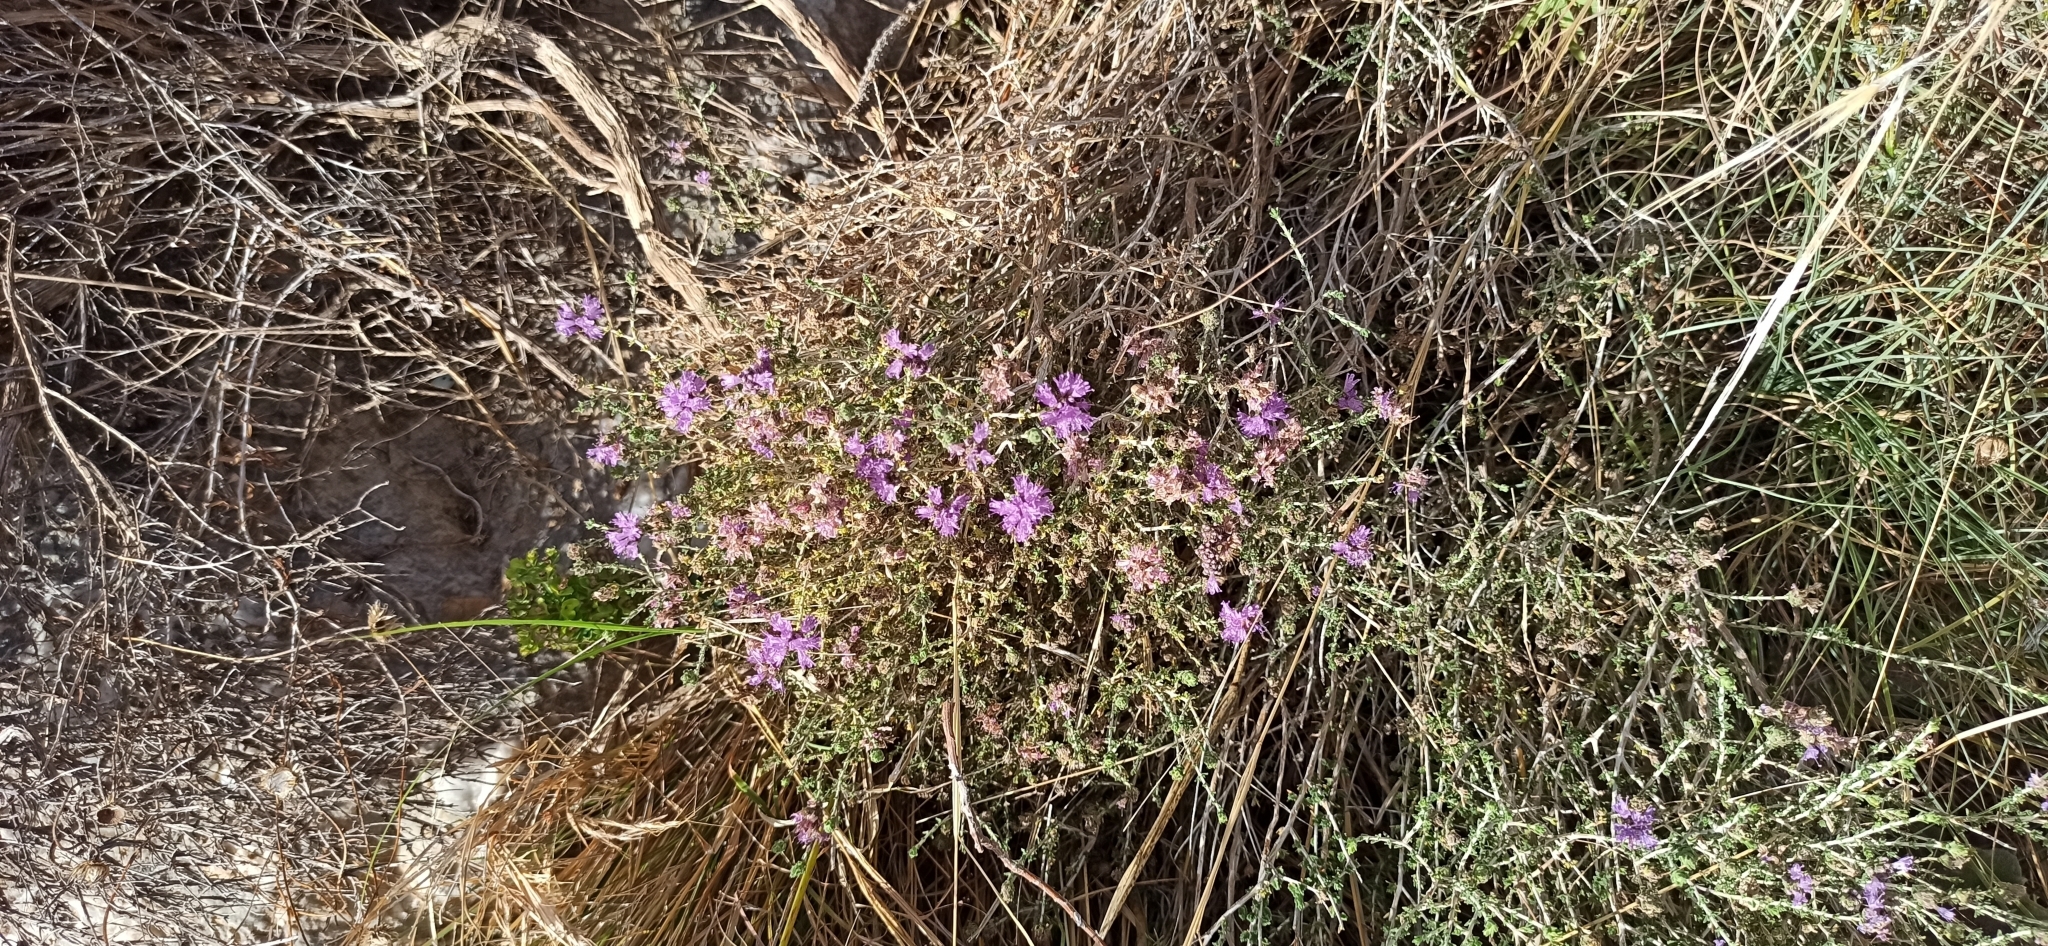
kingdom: Plantae
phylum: Tracheophyta
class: Magnoliopsida
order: Lamiales
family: Lamiaceae
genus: Thymbra
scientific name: Thymbra capitata
